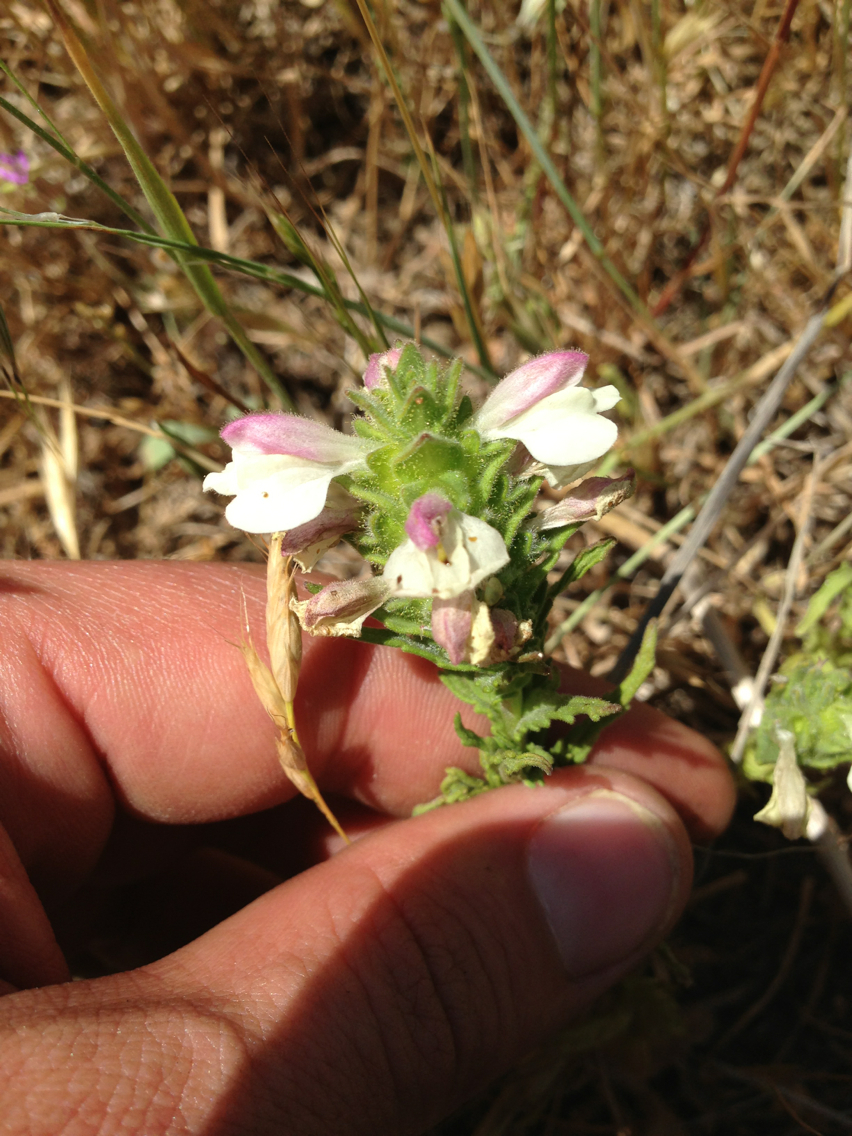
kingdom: Plantae
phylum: Tracheophyta
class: Magnoliopsida
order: Lamiales
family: Orobanchaceae
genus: Bellardia
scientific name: Bellardia trixago
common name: Mediterranean lineseed
